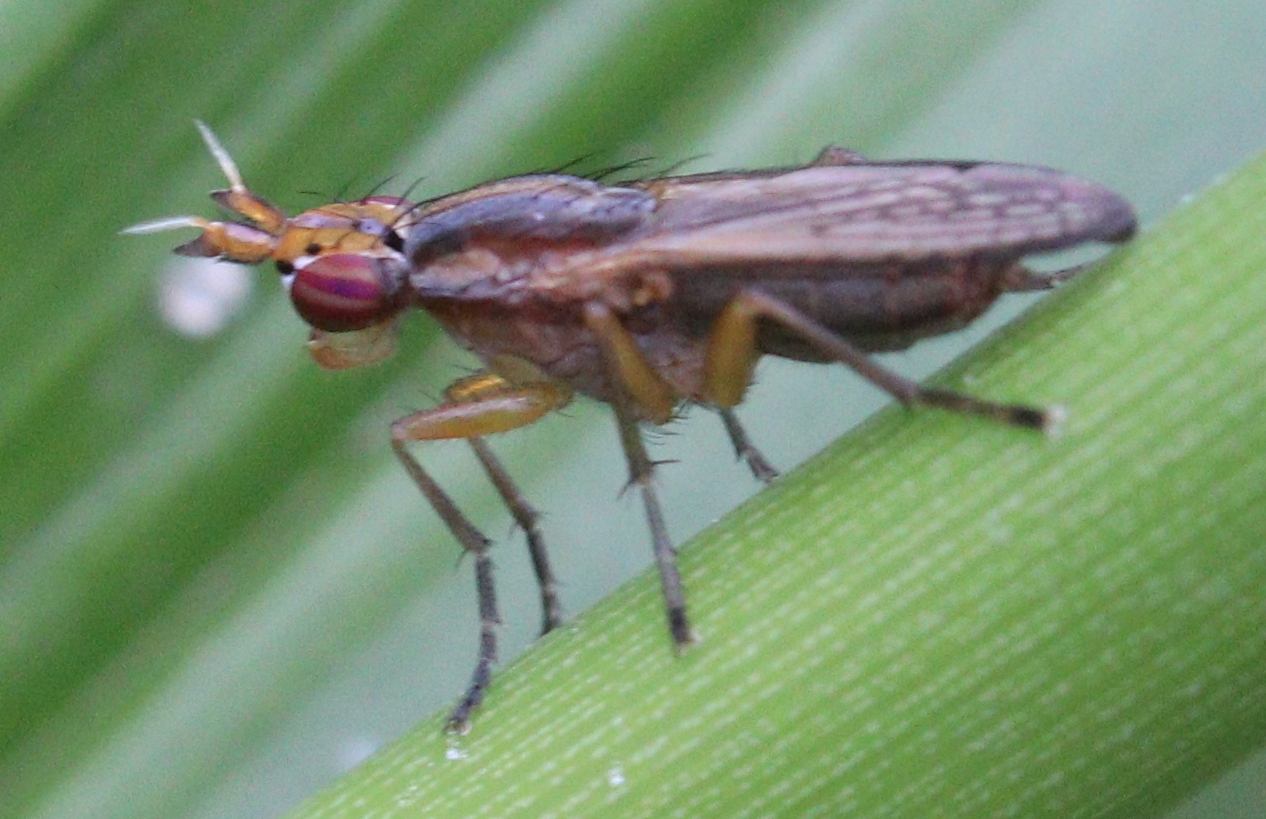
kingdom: Animalia
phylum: Arthropoda
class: Insecta
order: Diptera
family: Sciomyzidae
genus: Limnia
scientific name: Limnia unguicornis
